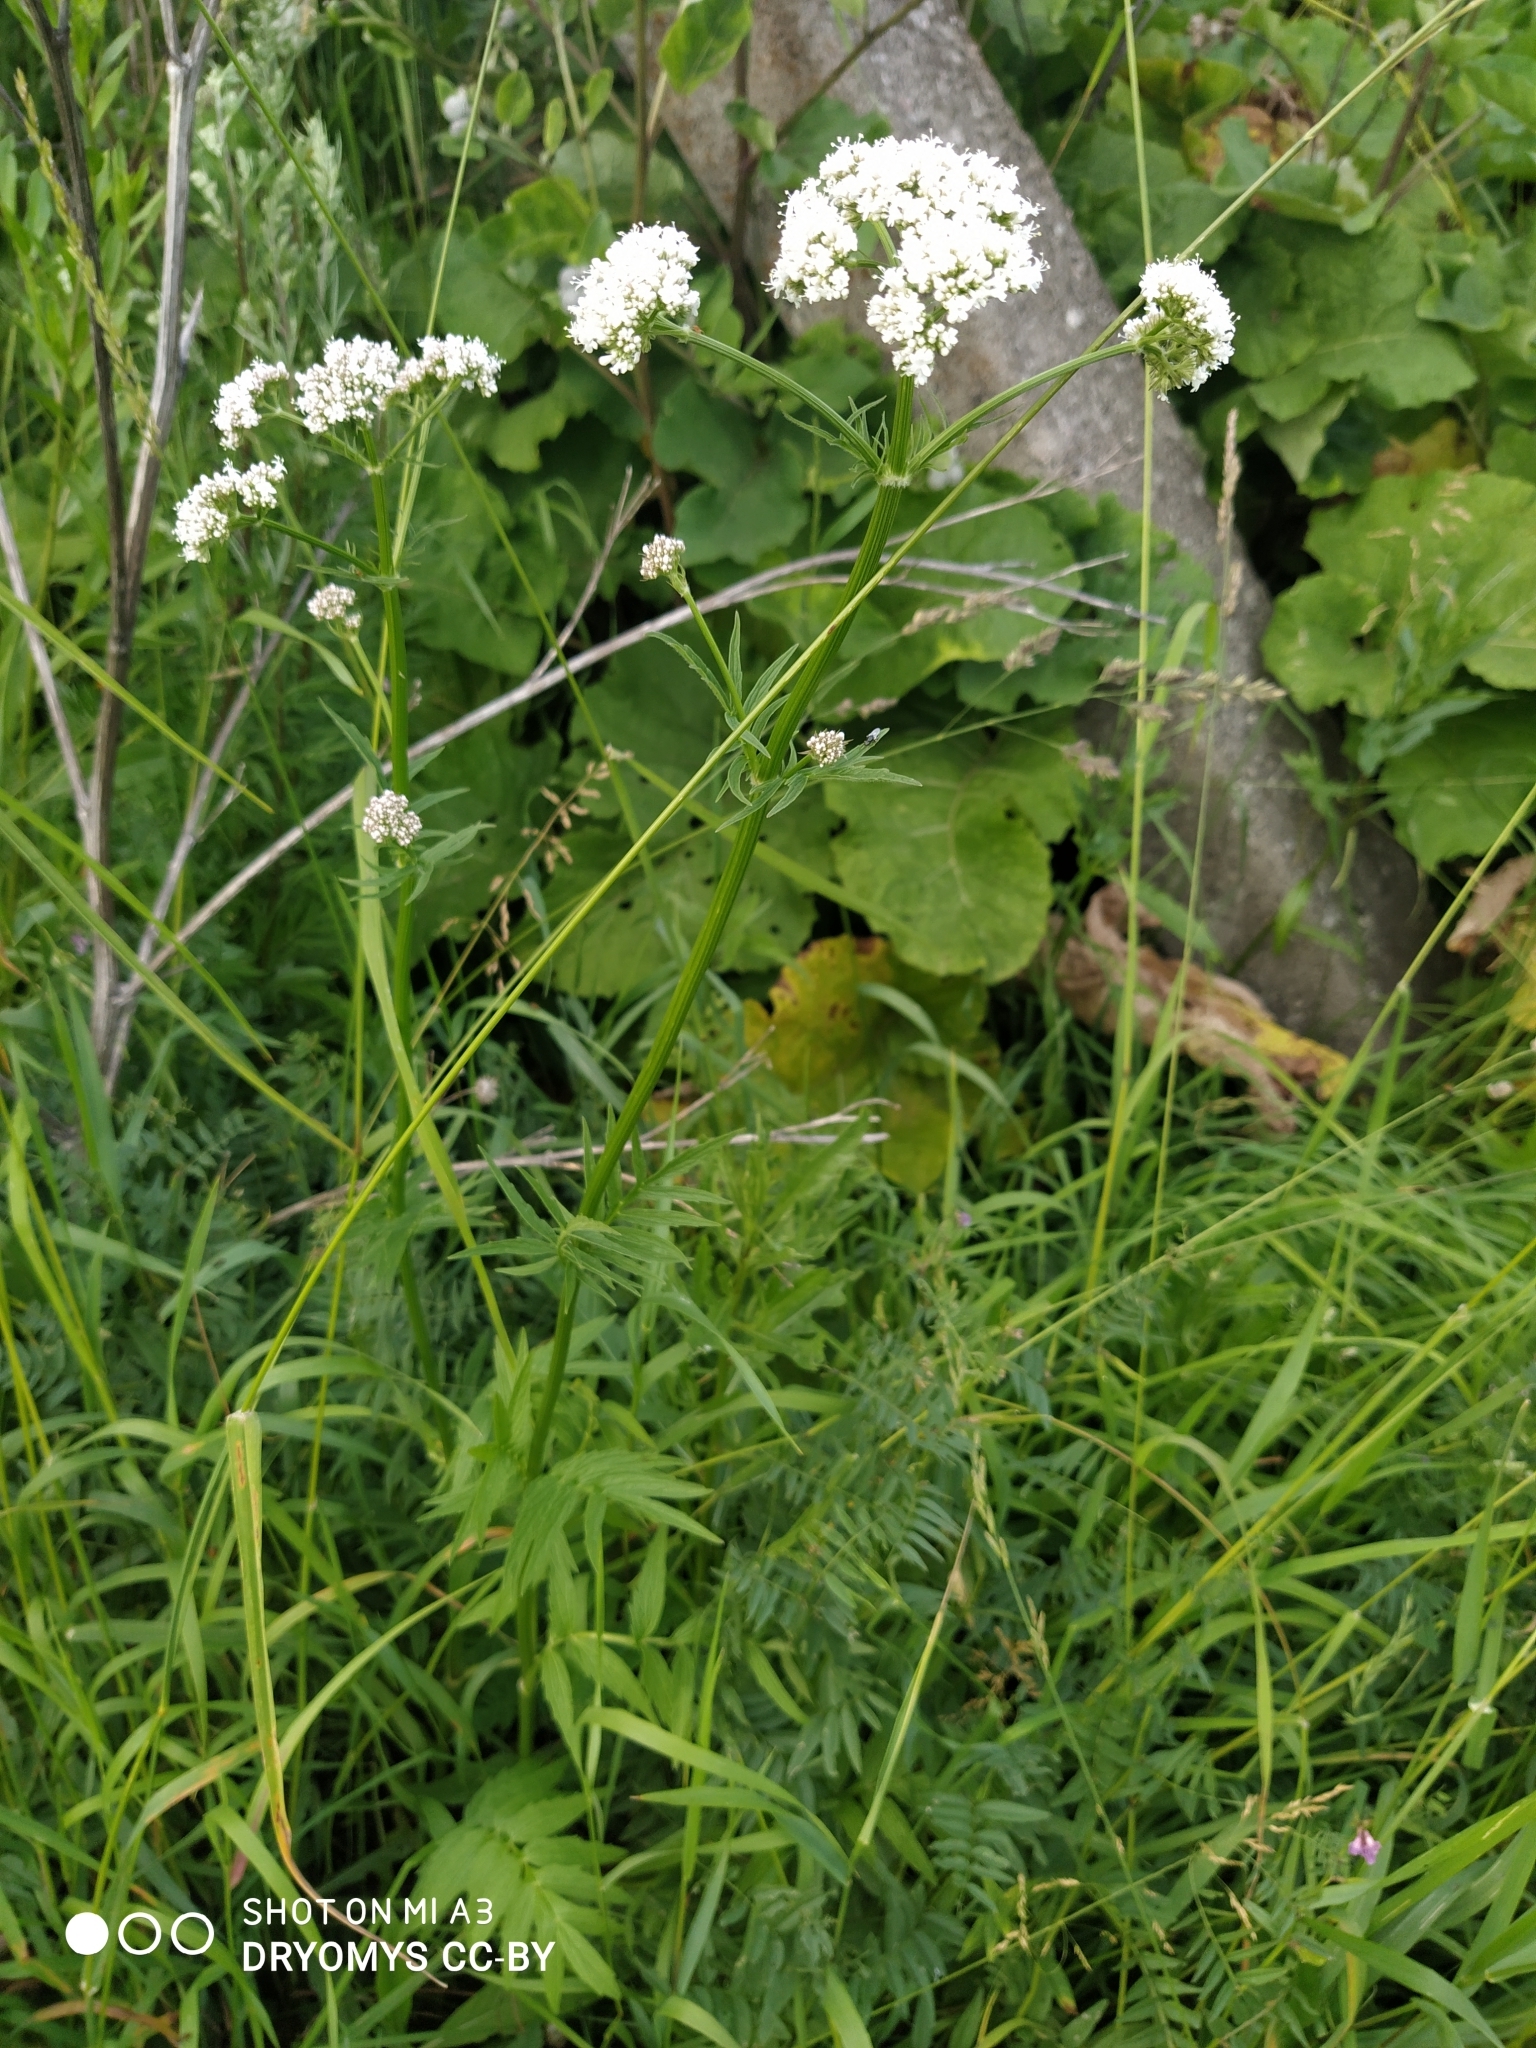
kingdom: Plantae
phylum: Tracheophyta
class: Magnoliopsida
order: Dipsacales
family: Caprifoliaceae
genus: Valeriana
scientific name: Valeriana officinalis
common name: Common valerian
